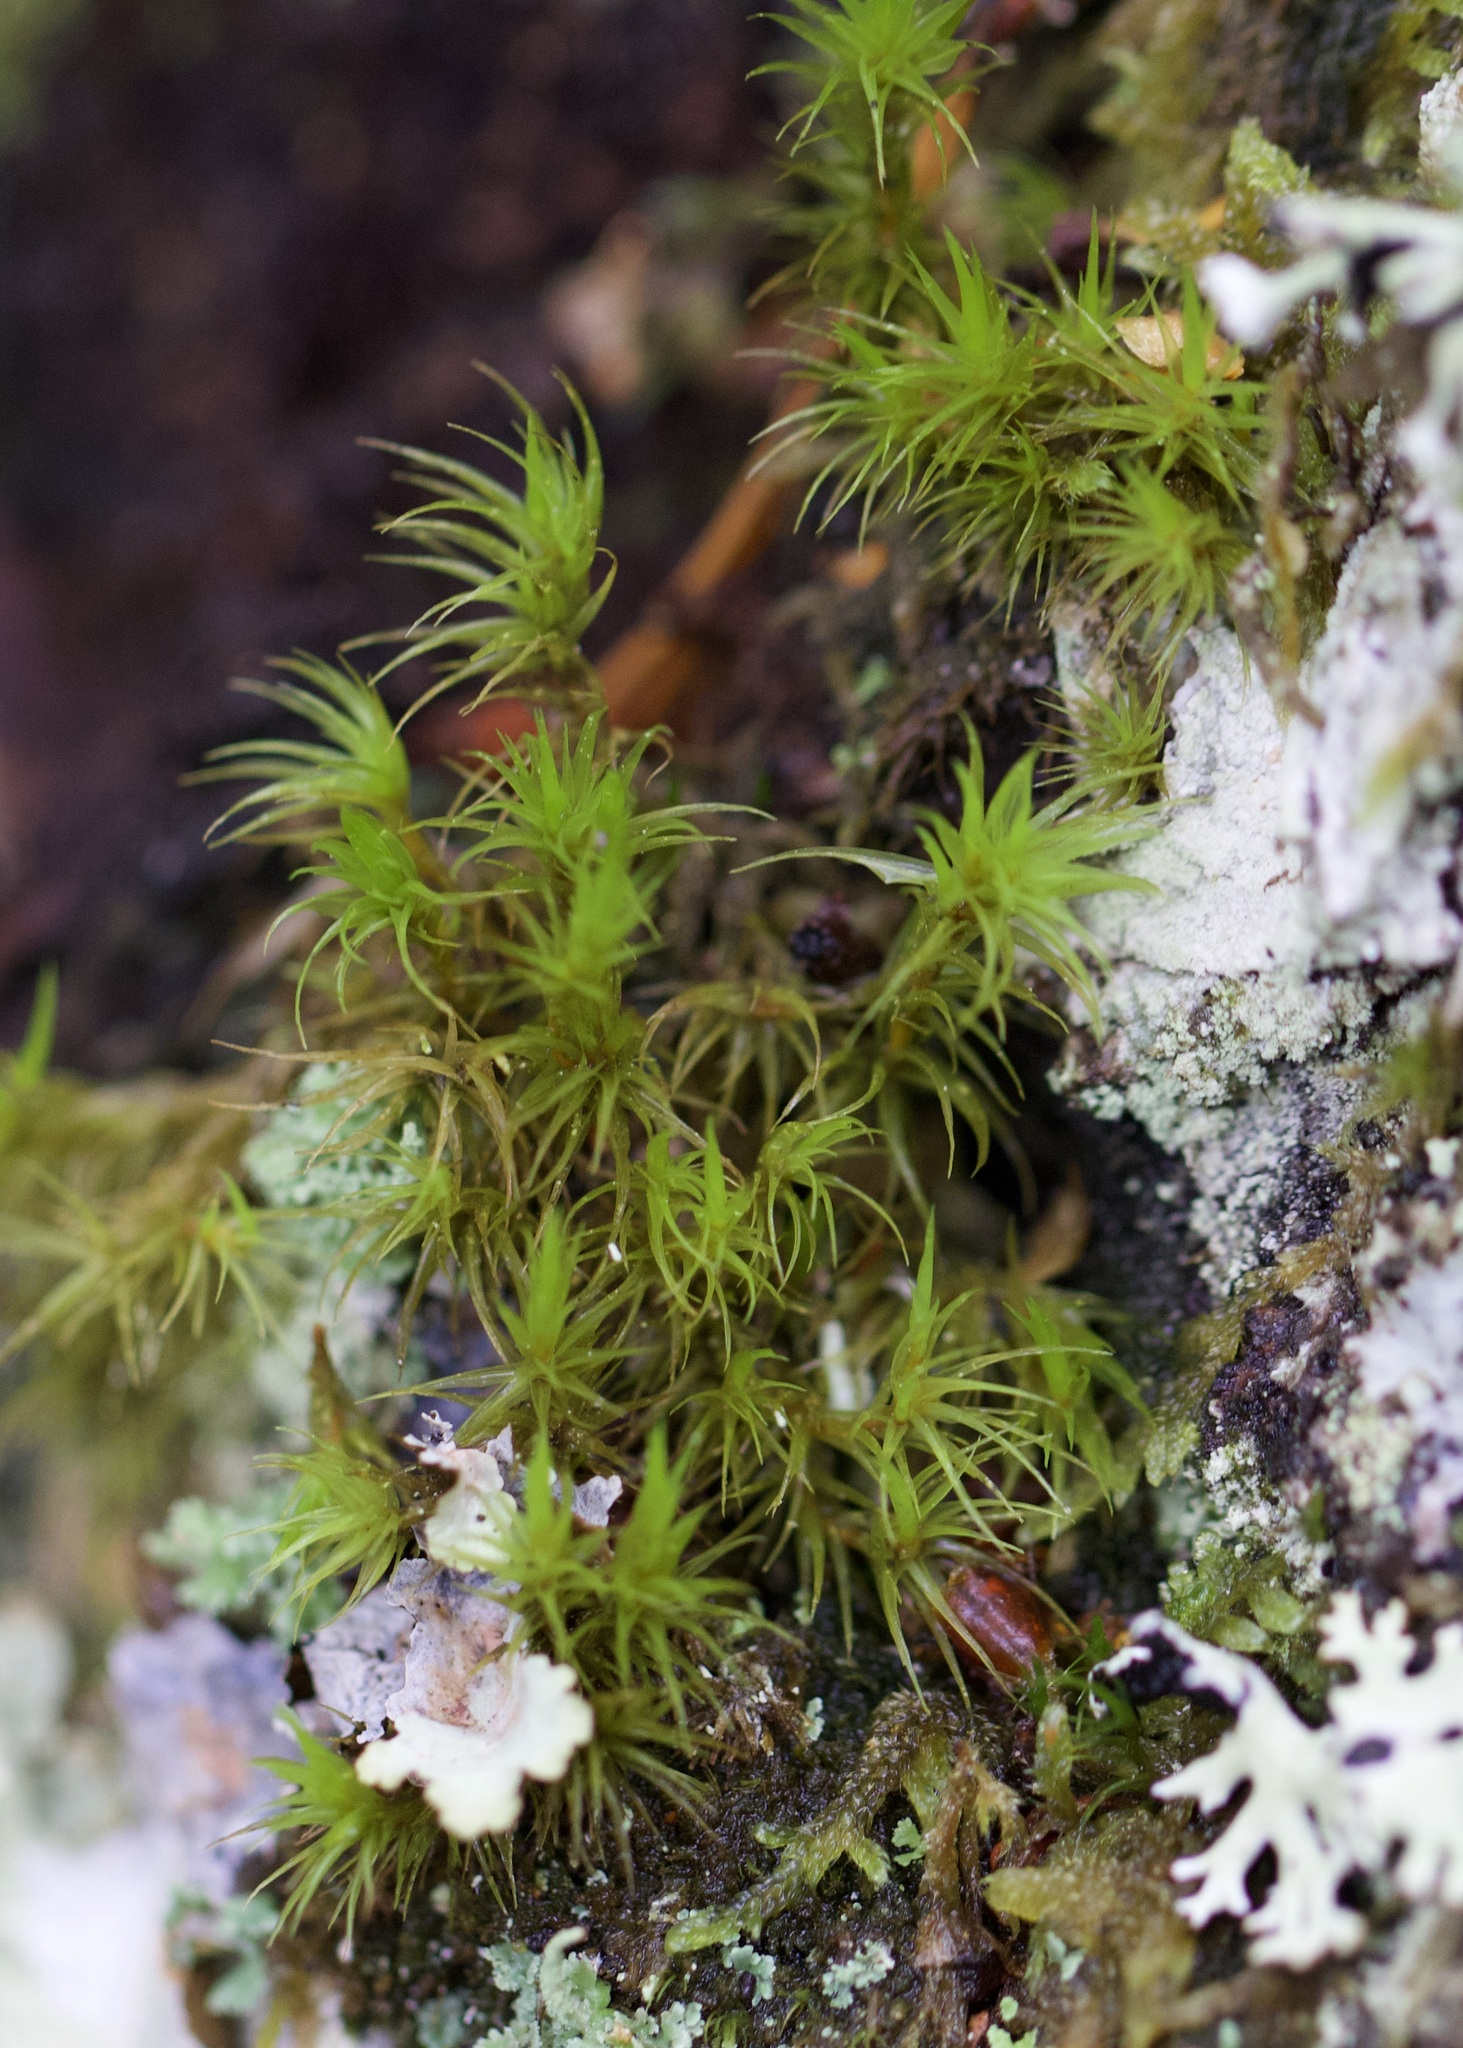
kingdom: Plantae
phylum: Bryophyta
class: Bryopsida
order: Dicranales
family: Dicranaceae
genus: Dicranum
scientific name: Dicranum scoparium
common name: Broom fork-moss
